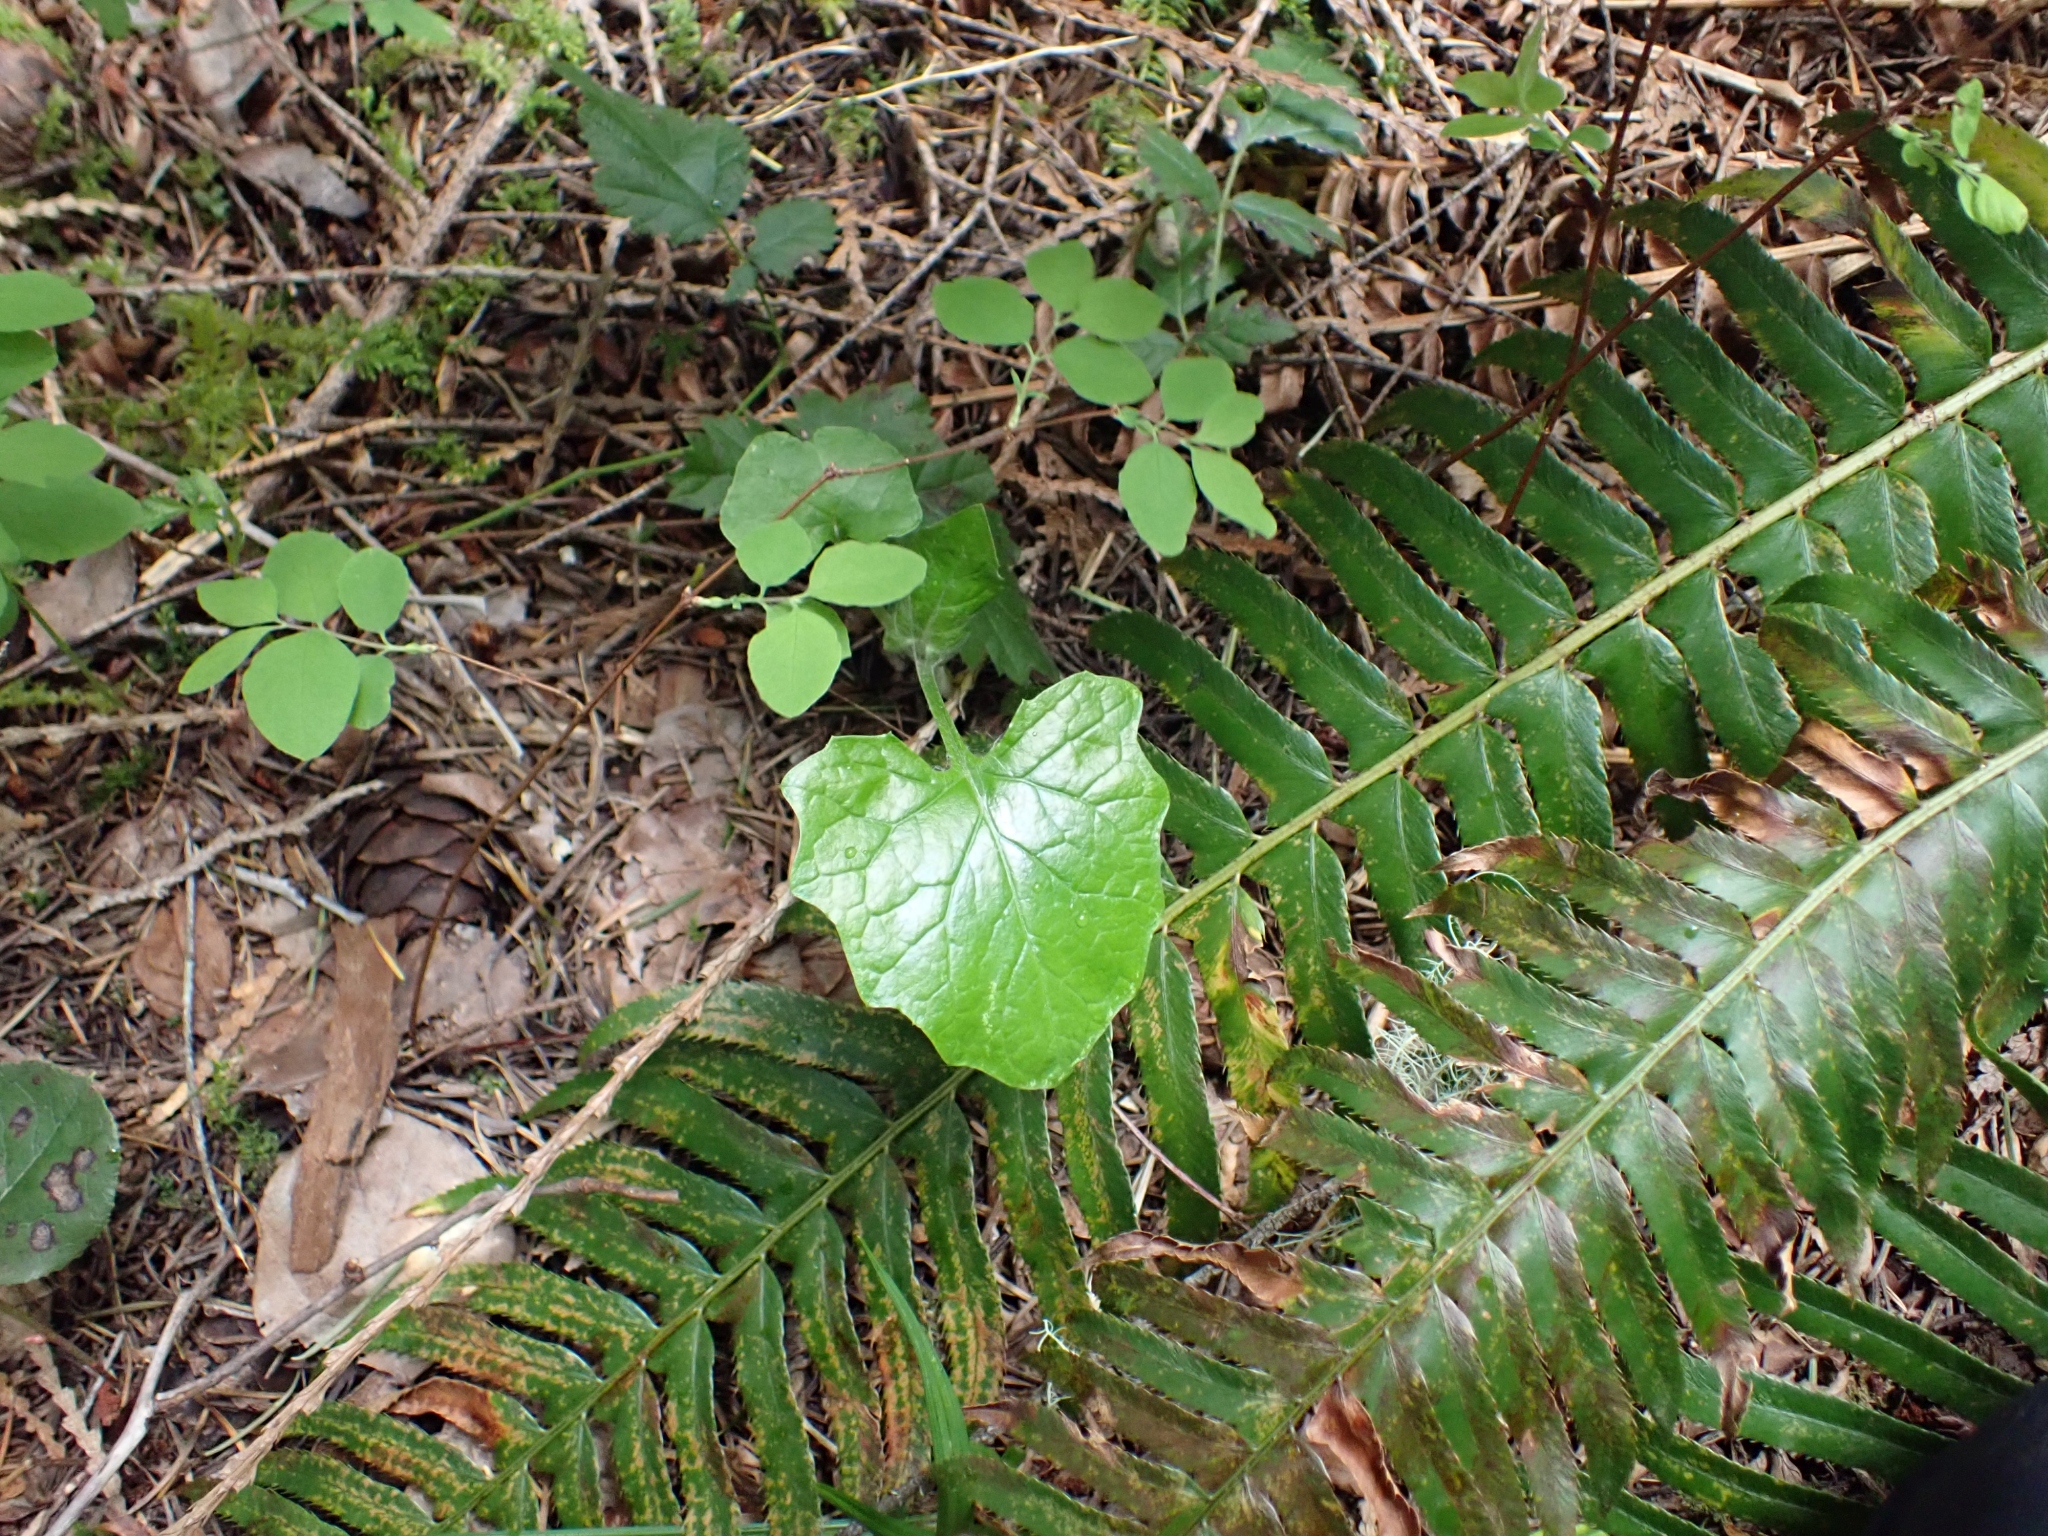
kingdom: Plantae
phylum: Tracheophyta
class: Magnoliopsida
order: Asterales
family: Asteraceae
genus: Adenocaulon
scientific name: Adenocaulon bicolor
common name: Trailplant
